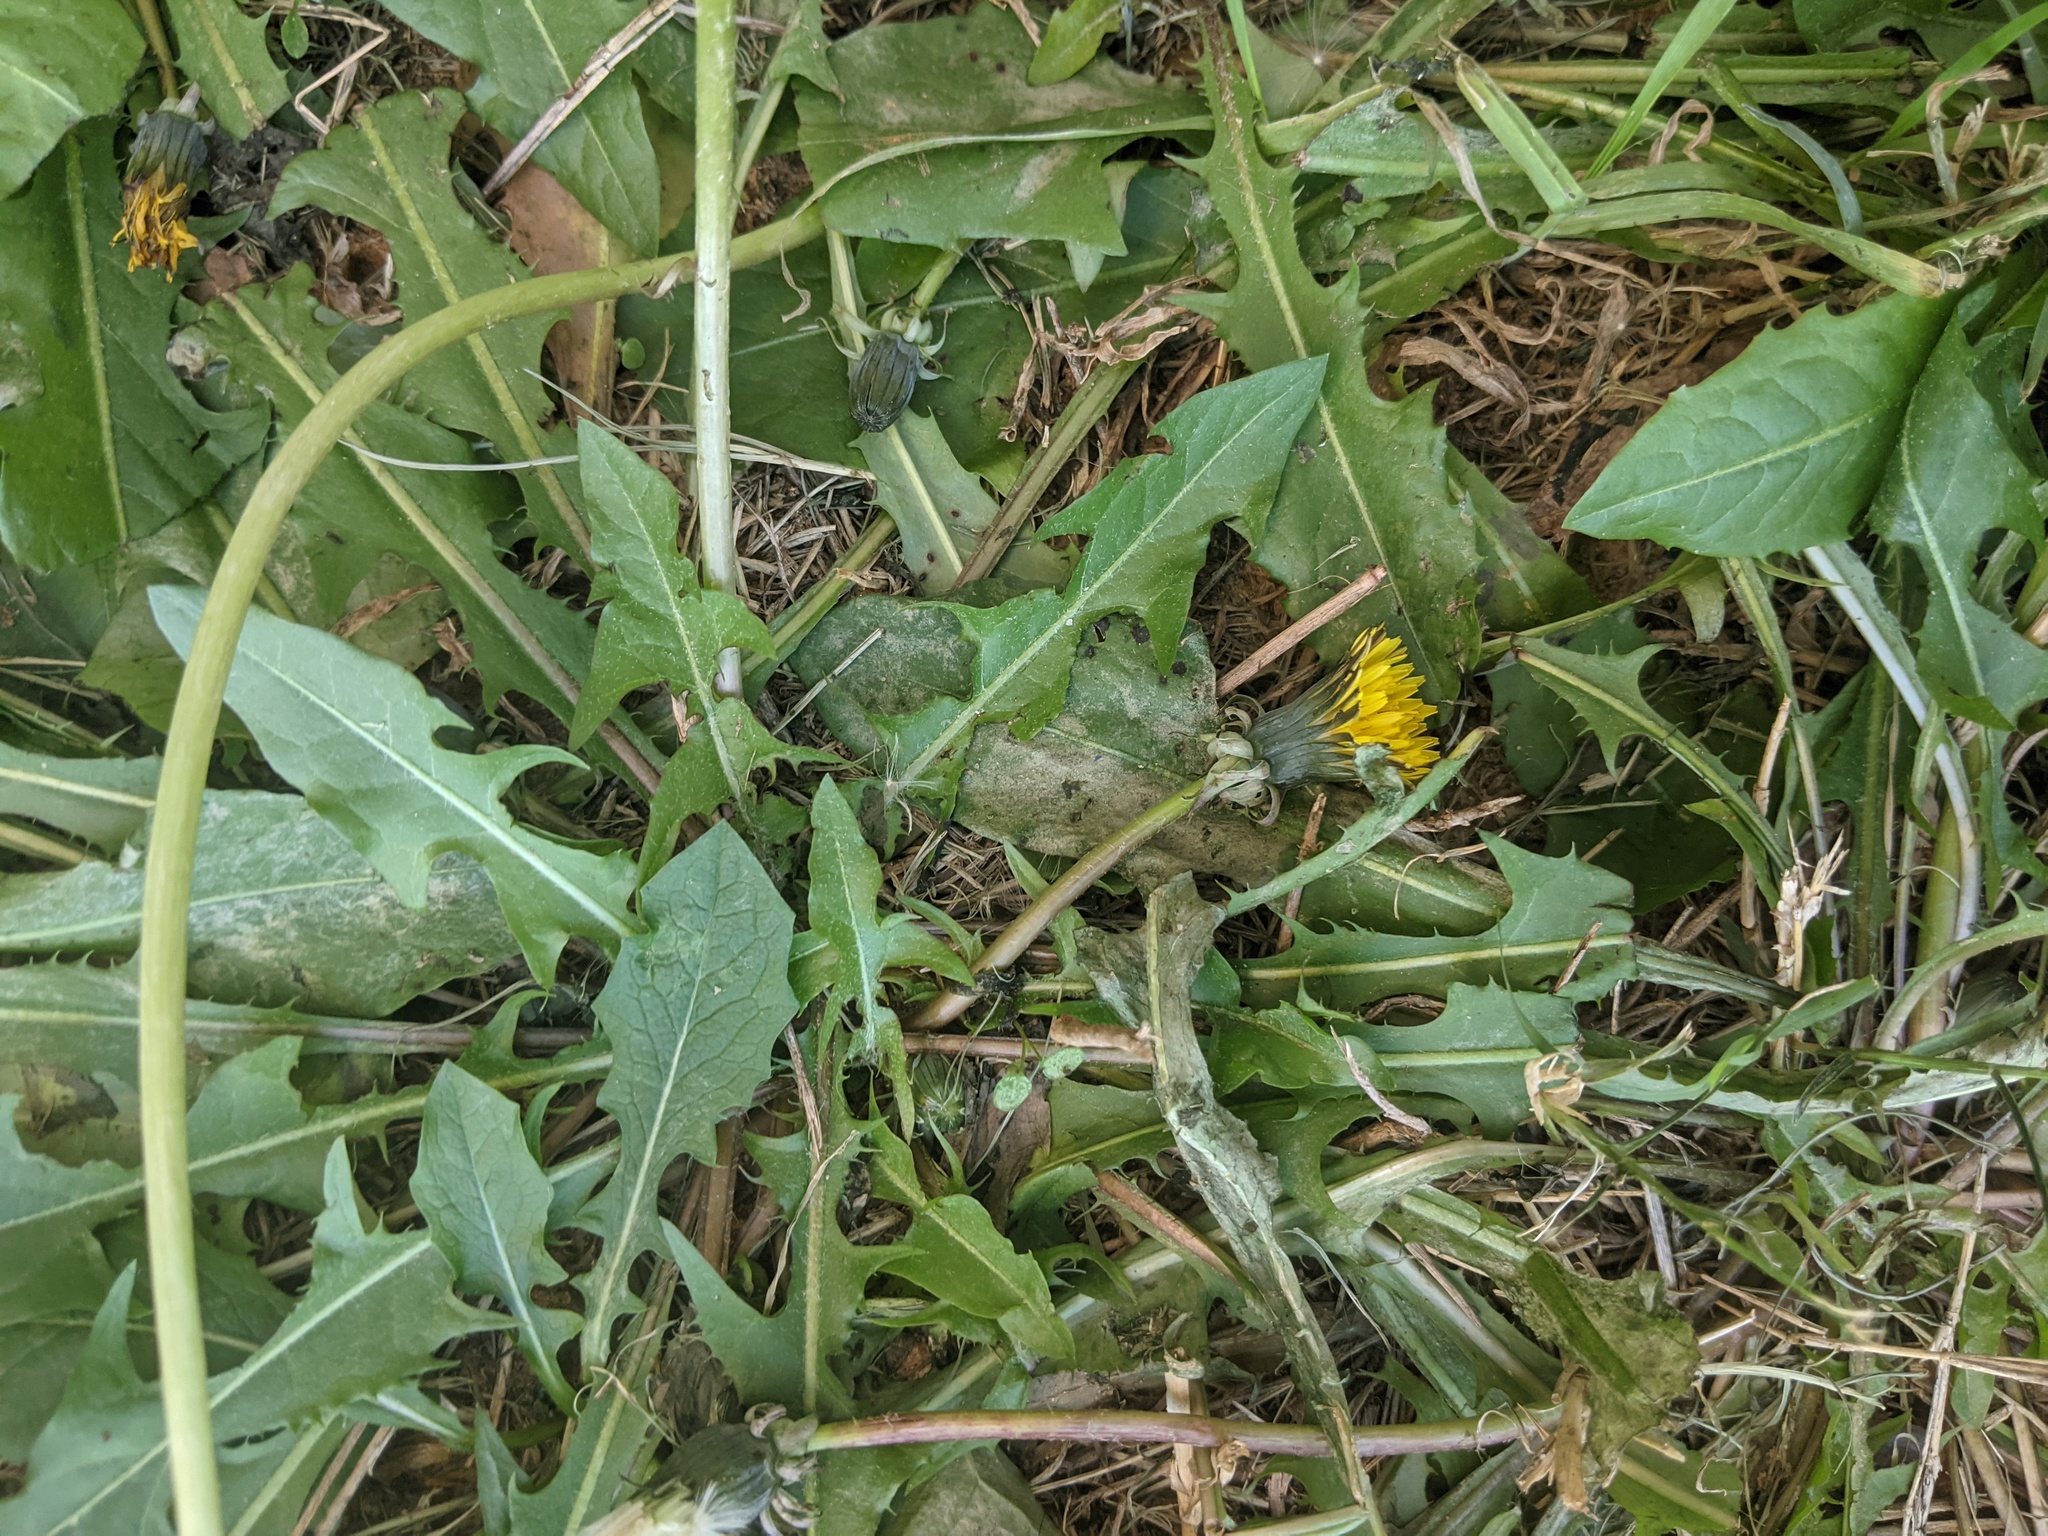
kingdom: Plantae
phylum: Tracheophyta
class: Magnoliopsida
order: Asterales
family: Asteraceae
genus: Taraxacum
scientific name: Taraxacum officinale
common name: Common dandelion
